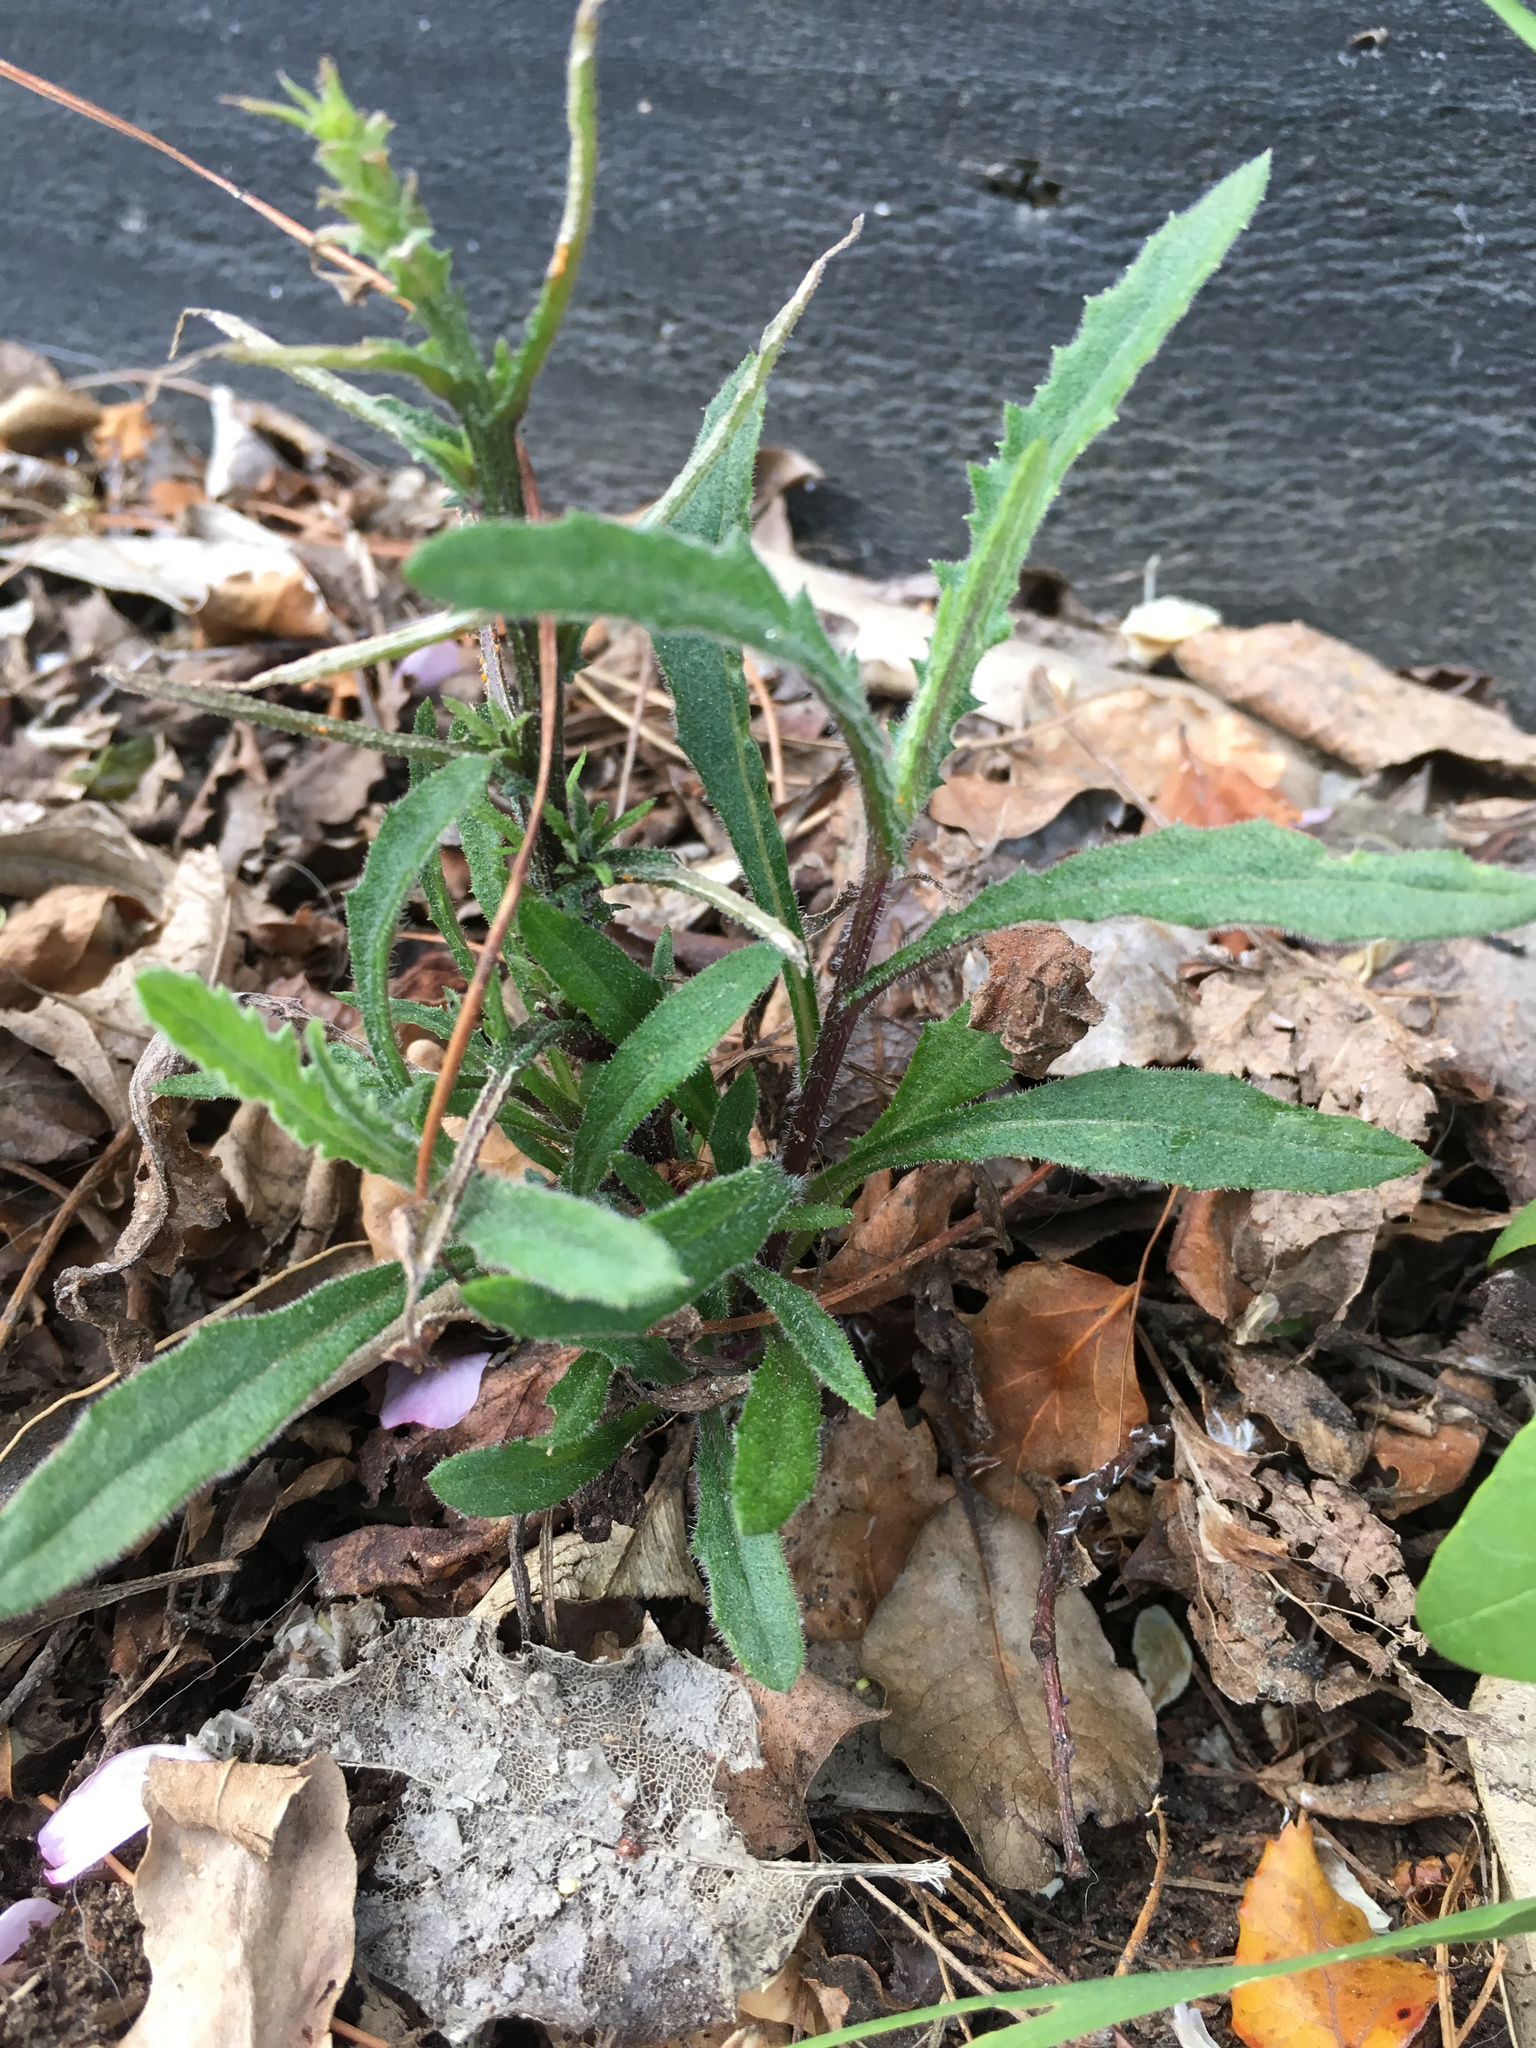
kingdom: Plantae
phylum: Tracheophyta
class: Magnoliopsida
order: Asterales
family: Asteraceae
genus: Senecio
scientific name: Senecio hispidulus
